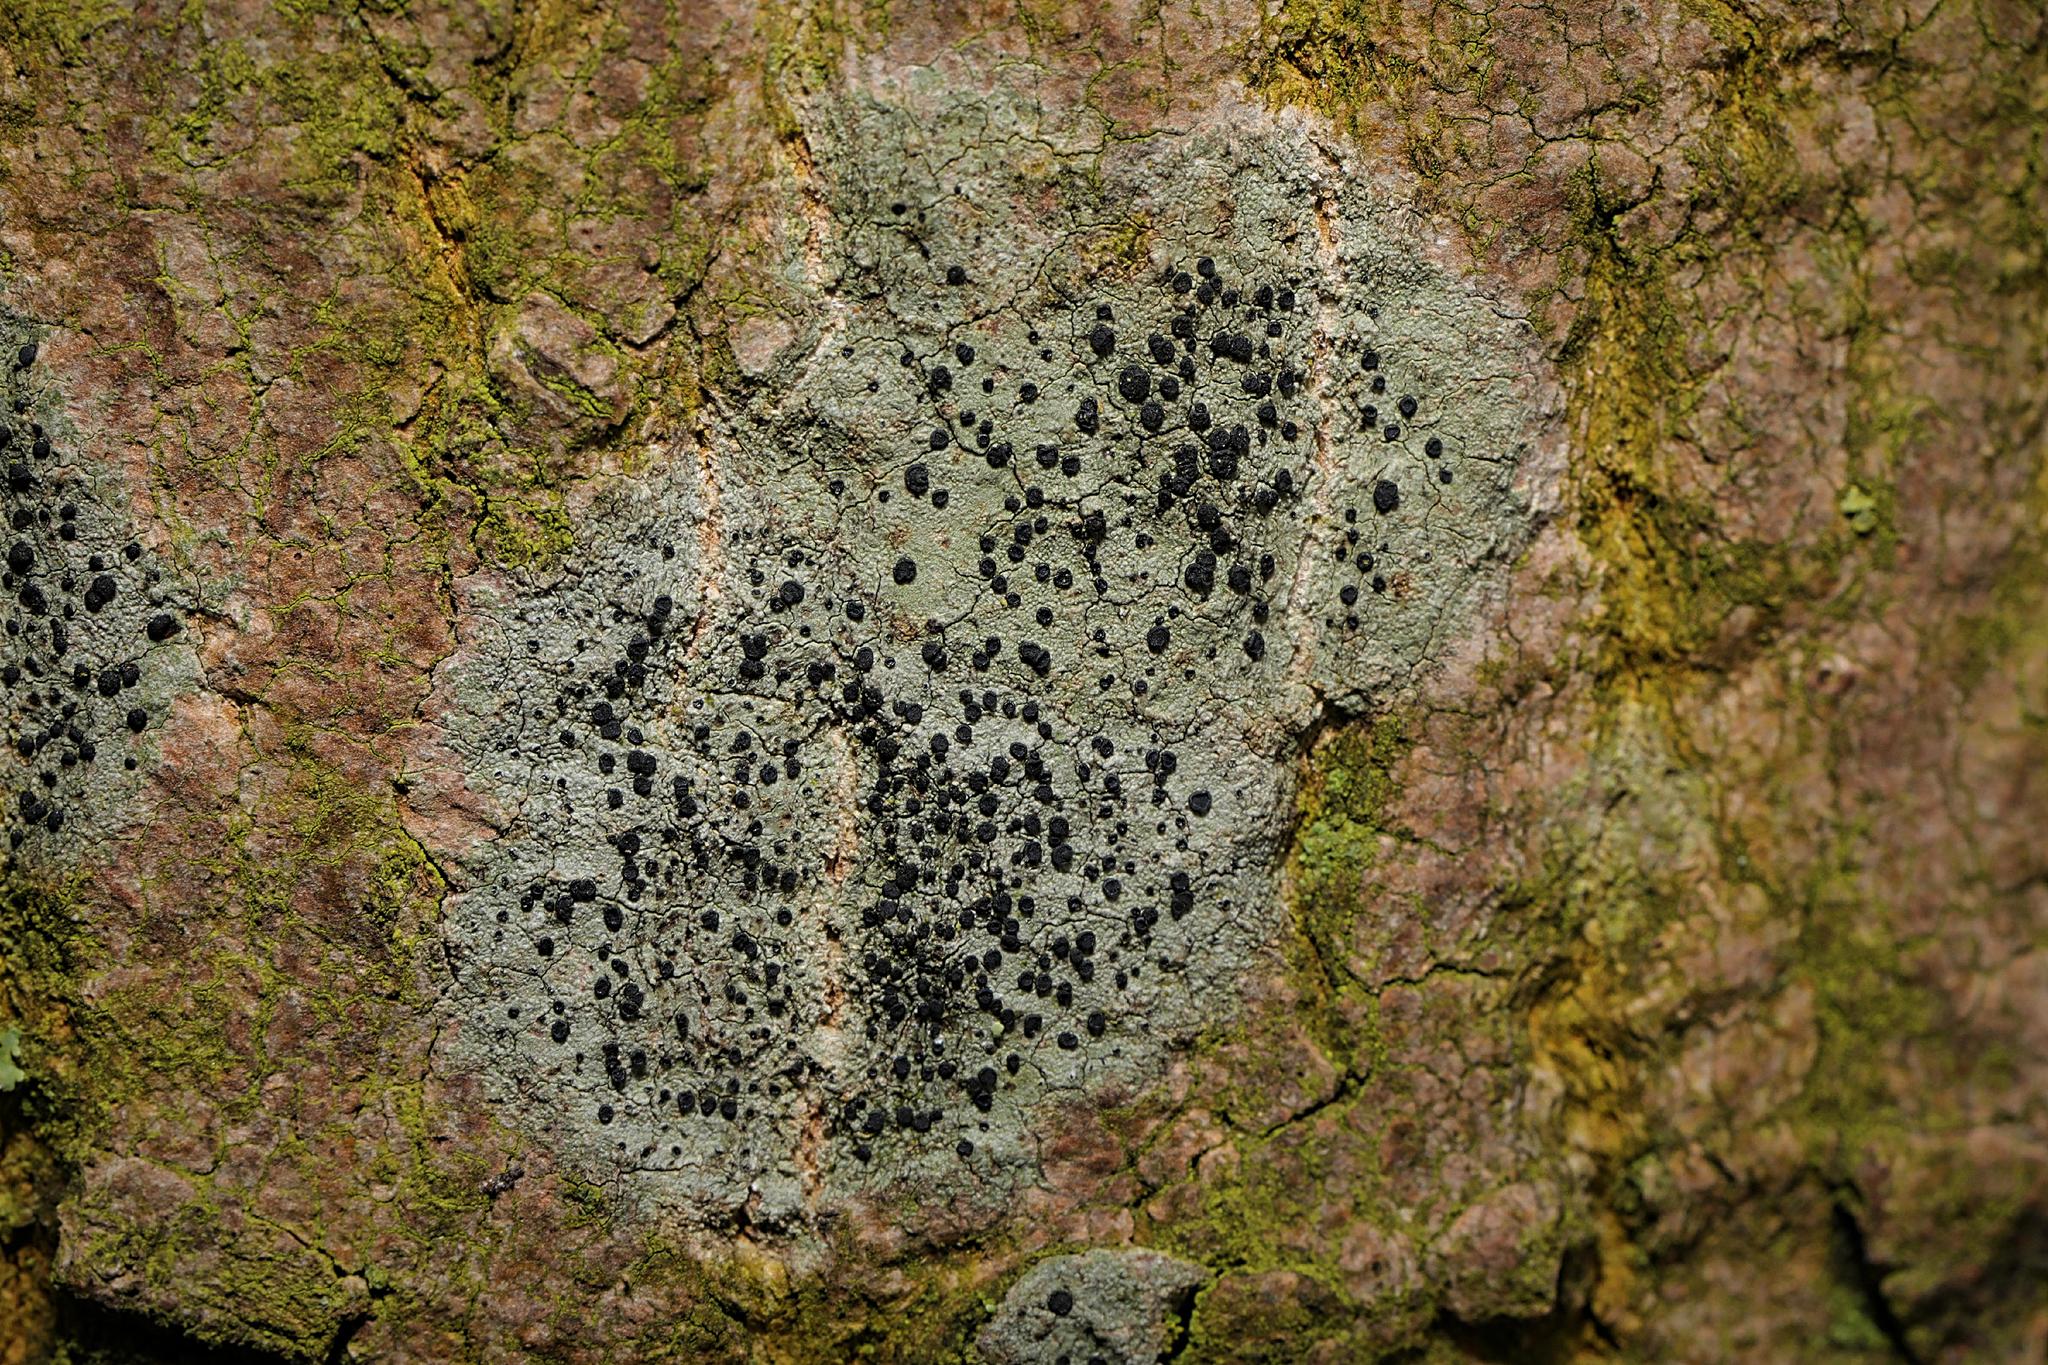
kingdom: Fungi
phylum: Ascomycota
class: Lecanoromycetes
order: Lecanorales
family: Lecanoraceae
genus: Lecidella
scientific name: Lecidella elaeochroma
